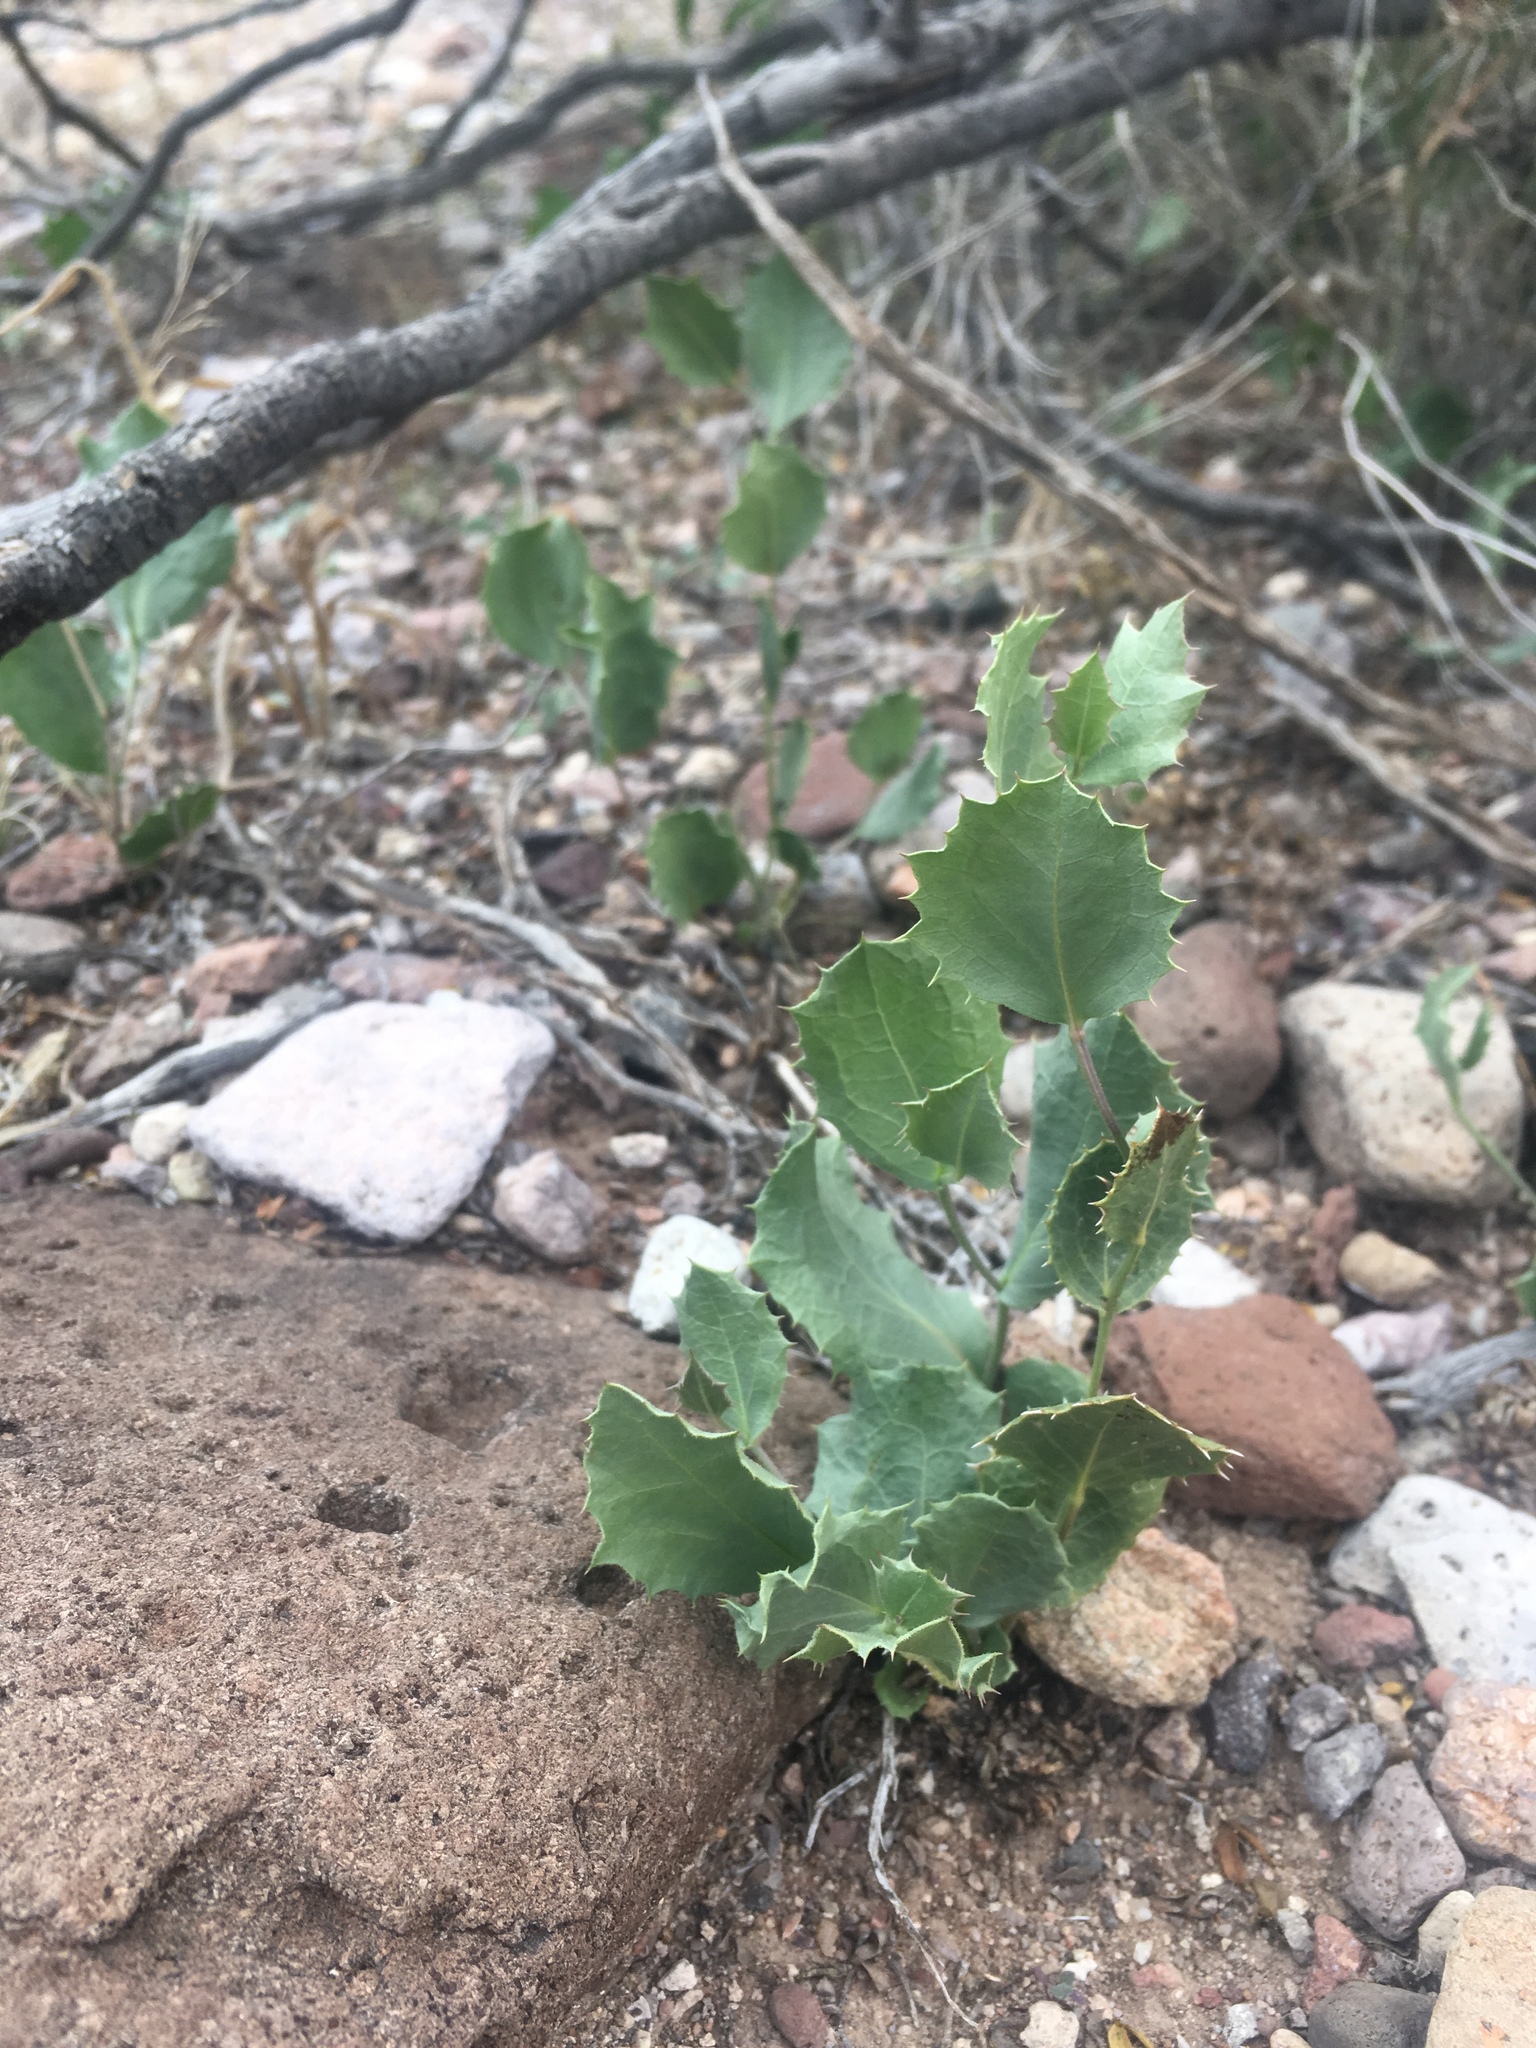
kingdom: Plantae
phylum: Tracheophyta
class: Magnoliopsida
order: Asterales
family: Asteraceae
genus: Acourtia
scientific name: Acourtia nana
